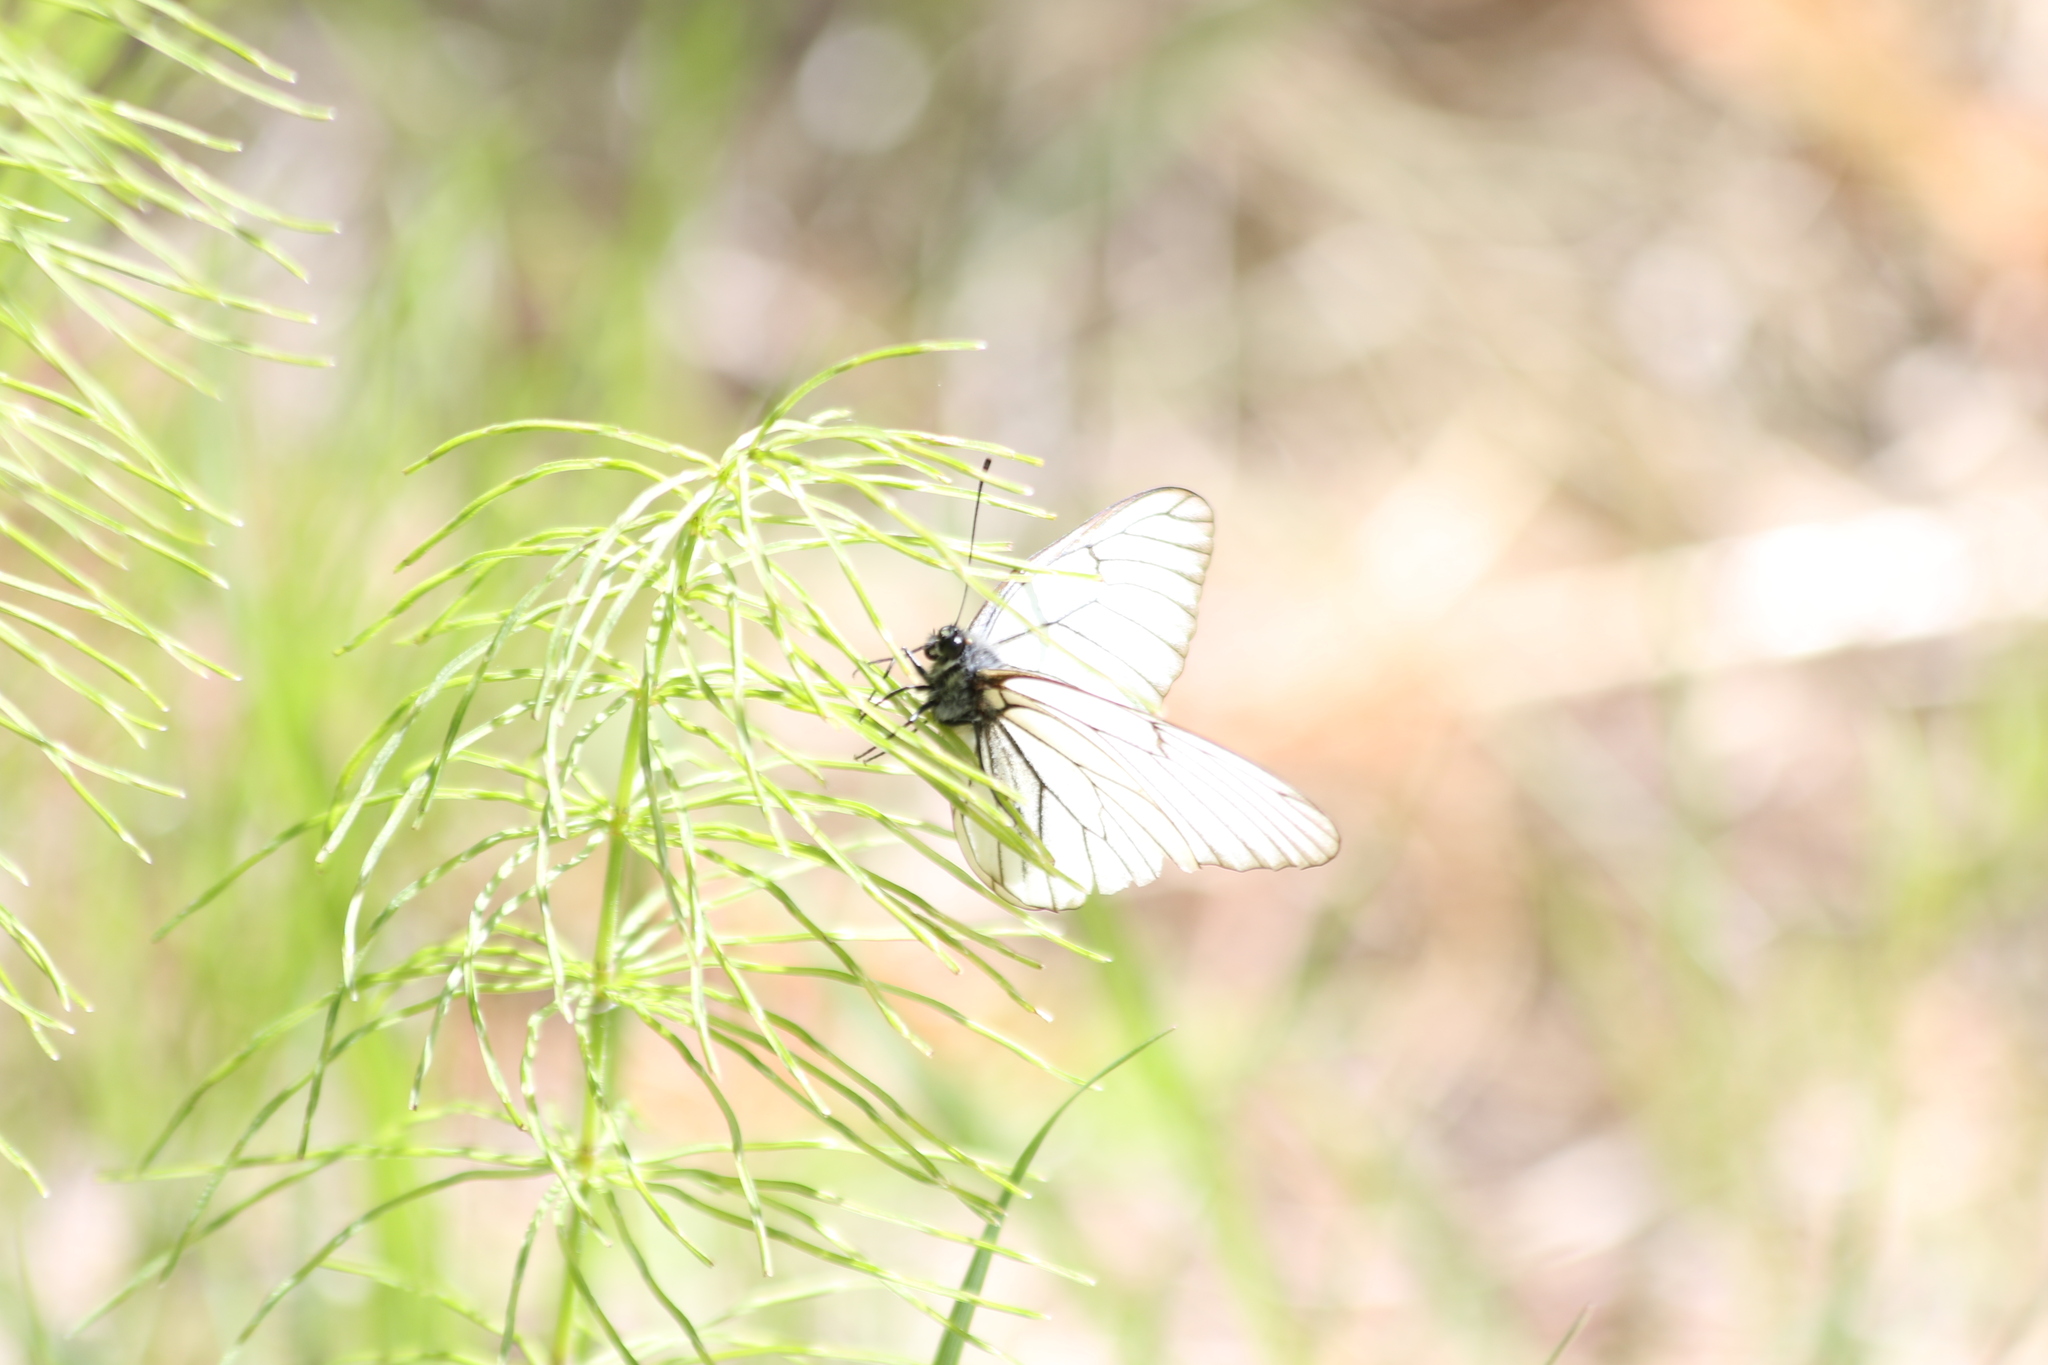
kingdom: Animalia
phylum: Arthropoda
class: Insecta
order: Lepidoptera
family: Pieridae
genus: Aporia
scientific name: Aporia crataegi
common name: Black-veined white
